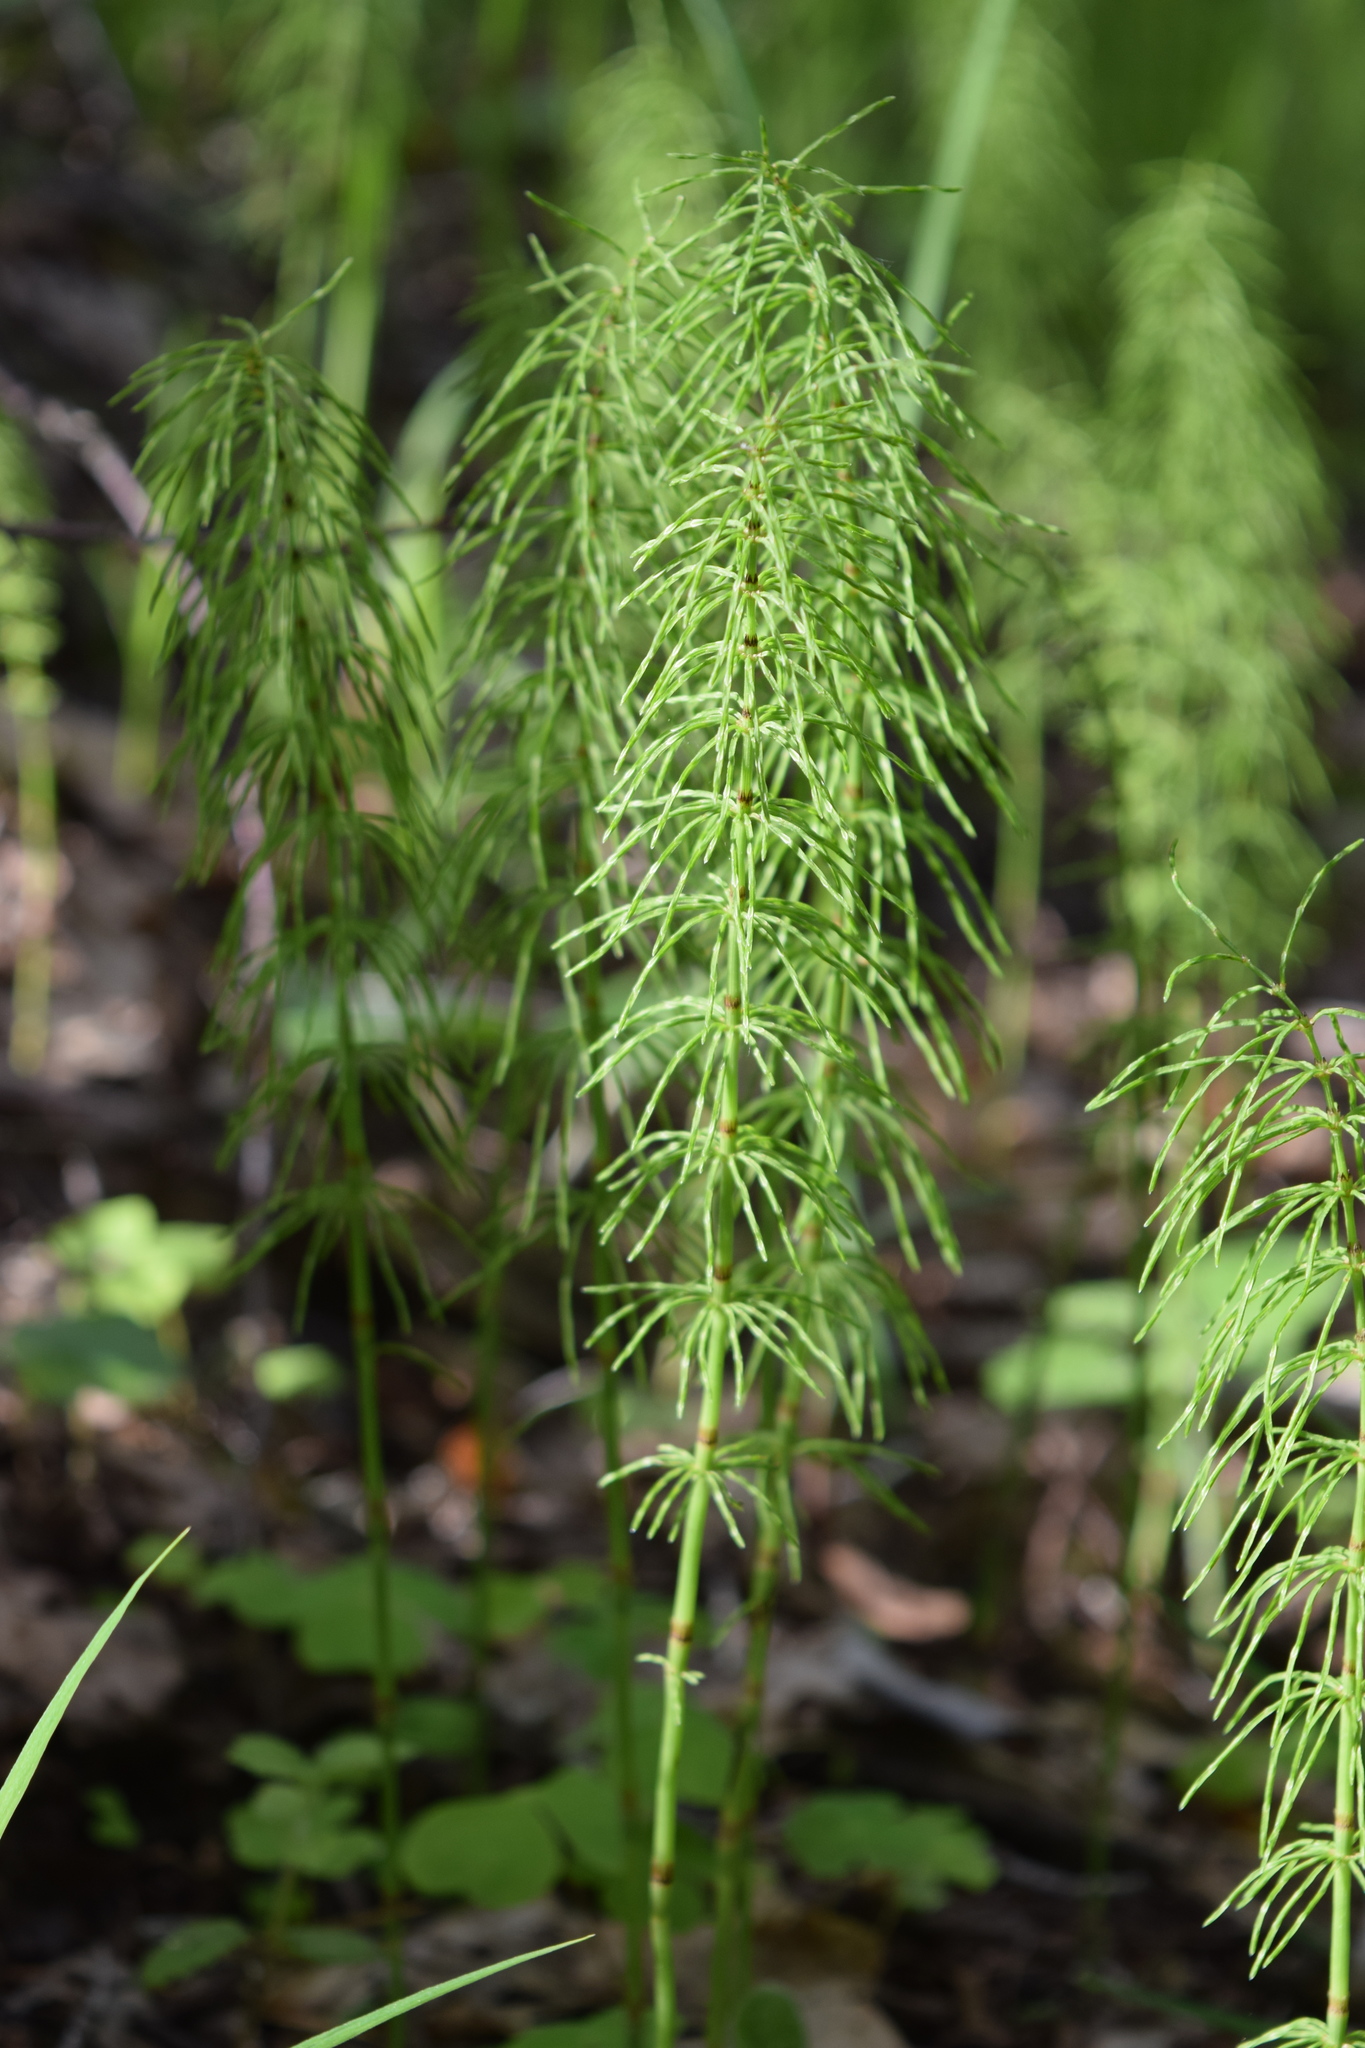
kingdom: Plantae
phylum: Tracheophyta
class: Polypodiopsida
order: Equisetales
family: Equisetaceae
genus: Equisetum
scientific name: Equisetum pratense
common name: Meadow horsetail
